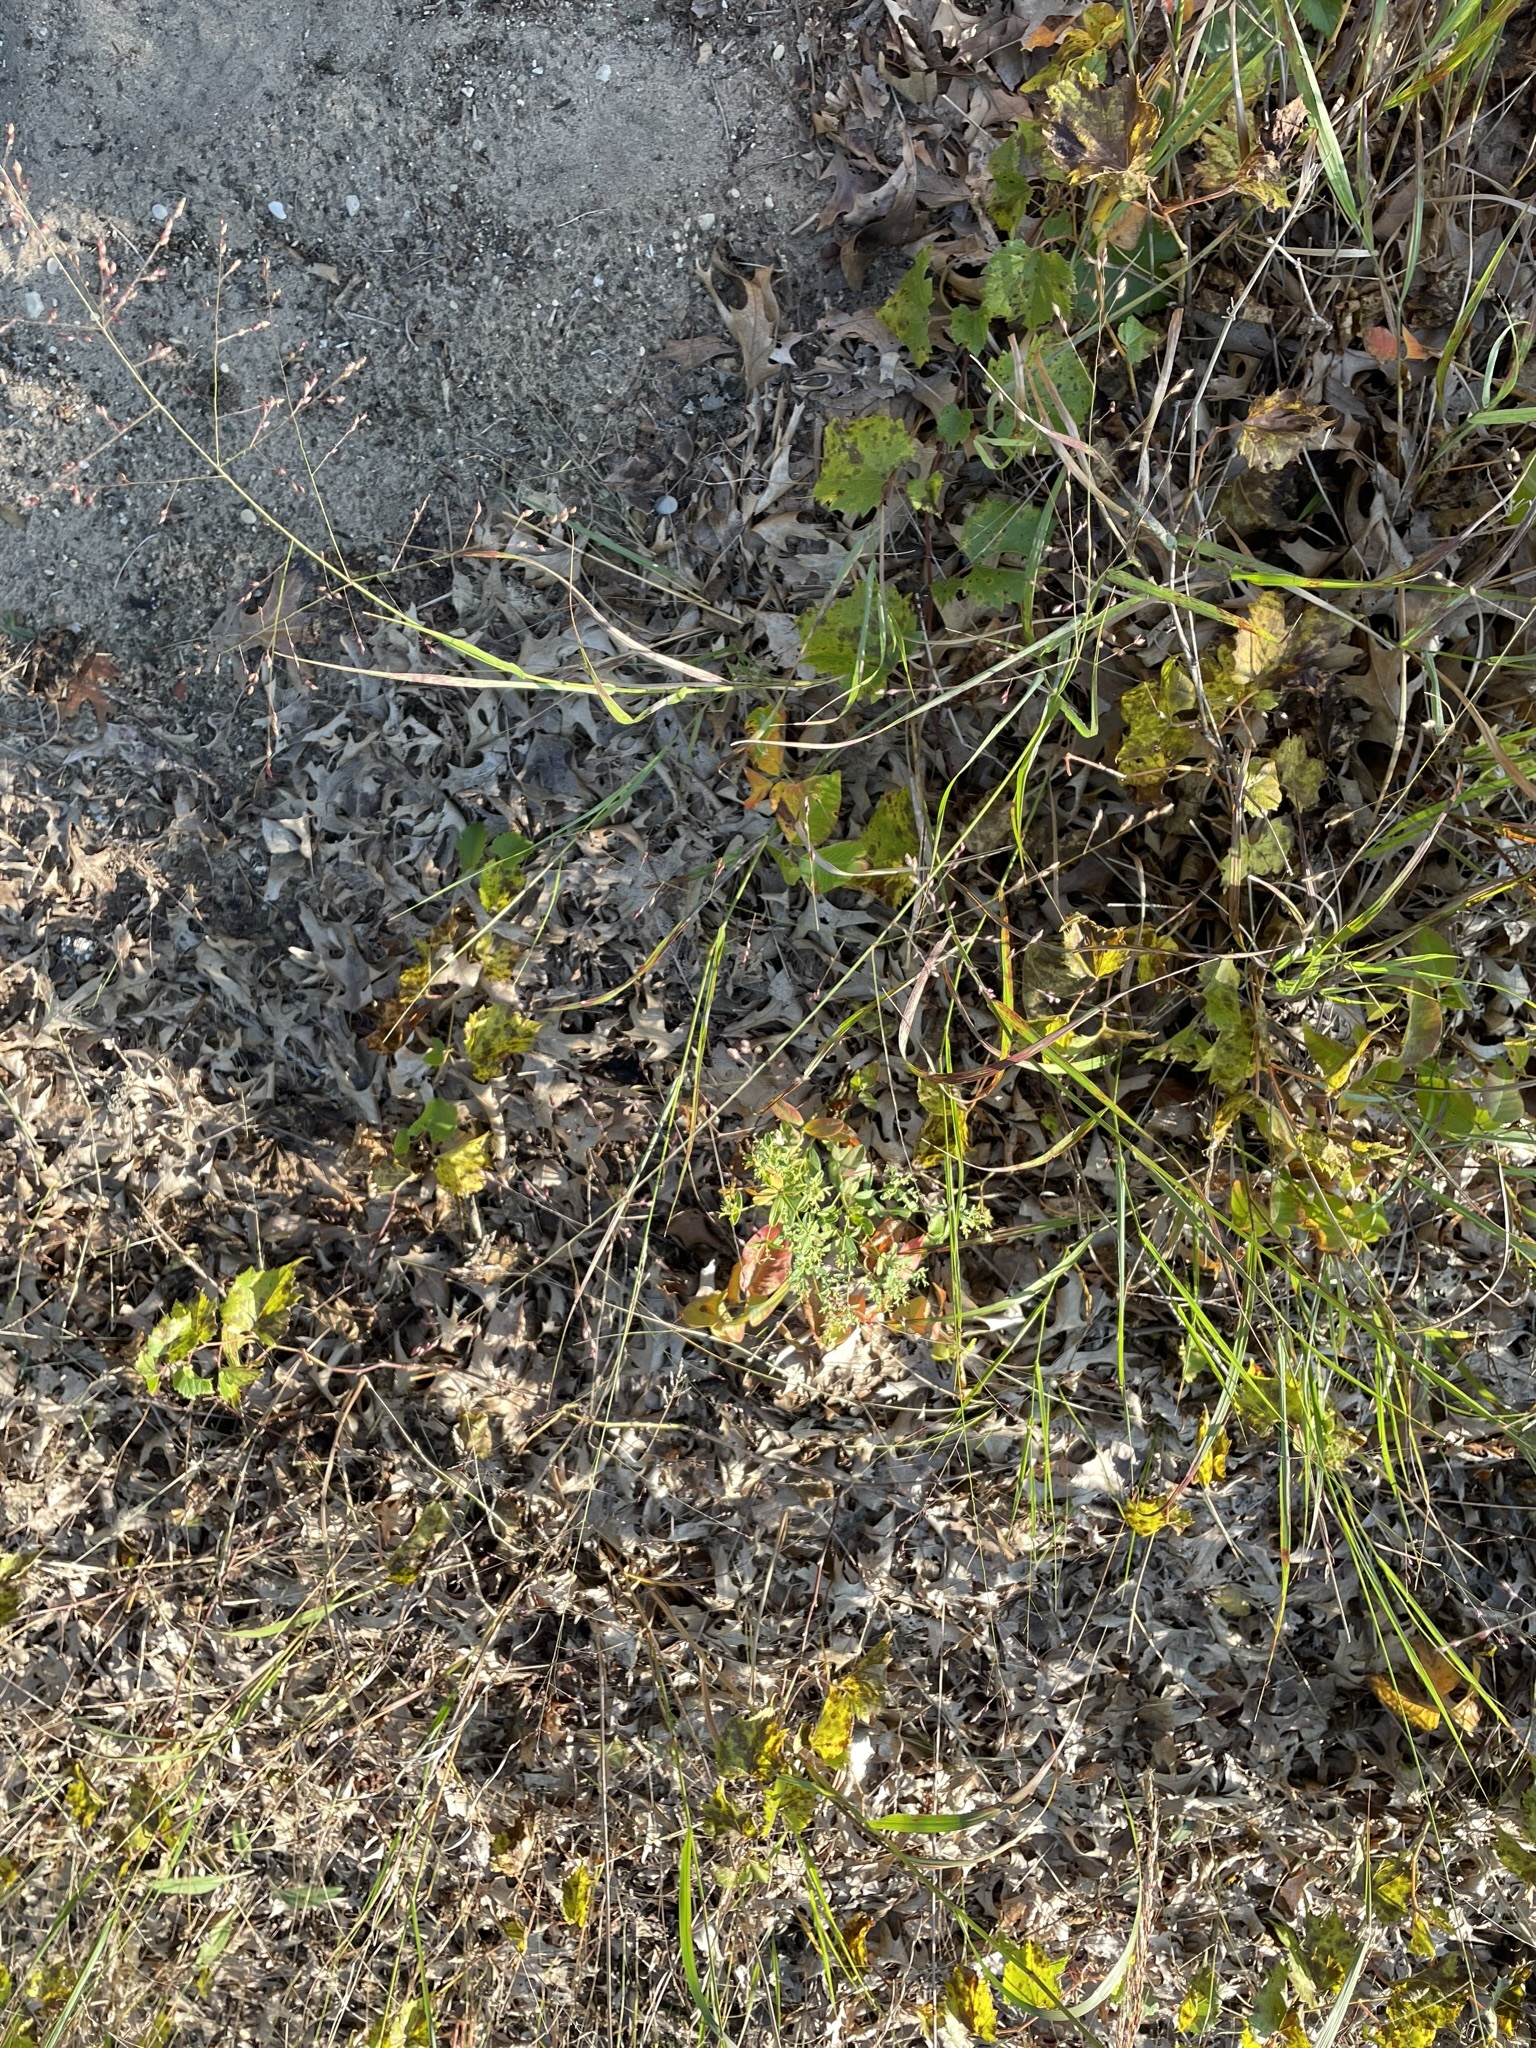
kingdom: Plantae
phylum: Tracheophyta
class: Liliopsida
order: Poales
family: Poaceae
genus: Panicum
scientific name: Panicum virgatum
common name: Switchgrass
